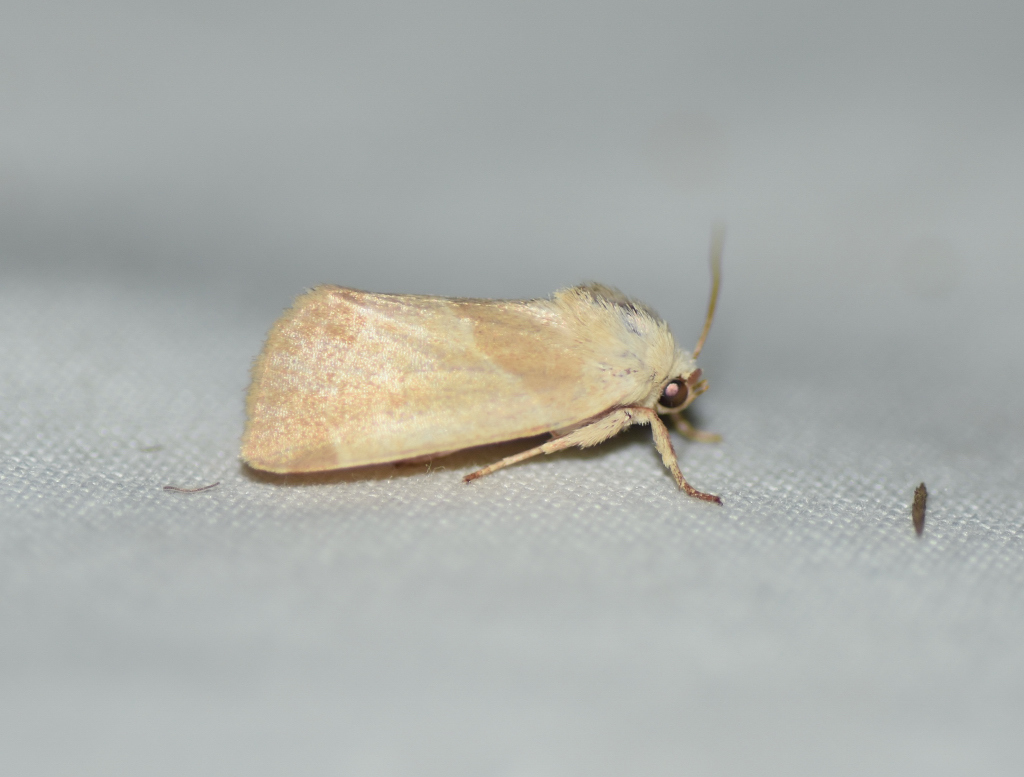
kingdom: Animalia
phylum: Arthropoda
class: Insecta
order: Lepidoptera
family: Noctuidae
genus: Cosmia
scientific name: Cosmia calami
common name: American dun-bar moth
